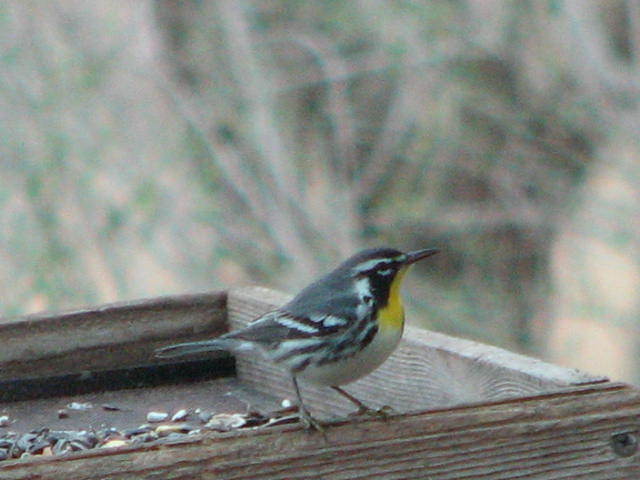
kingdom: Animalia
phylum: Chordata
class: Aves
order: Passeriformes
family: Parulidae
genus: Setophaga
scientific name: Setophaga dominica
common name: Yellow-throated warbler
